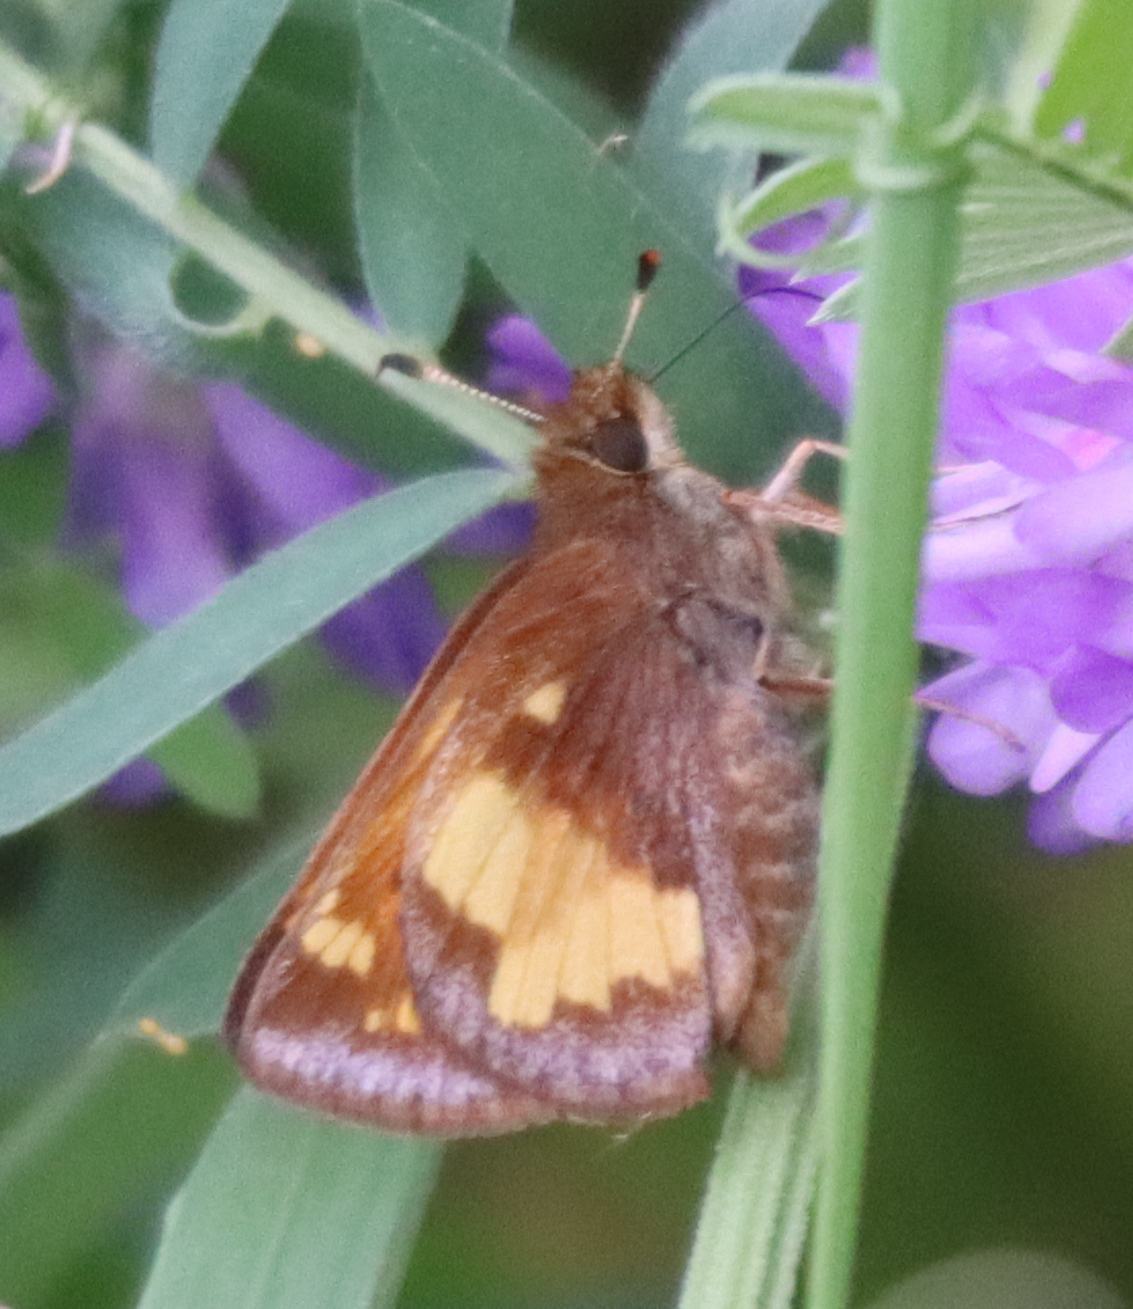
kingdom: Animalia
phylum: Arthropoda
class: Insecta
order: Lepidoptera
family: Hesperiidae
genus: Lon
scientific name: Lon hobomok
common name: Hobomok skipper
